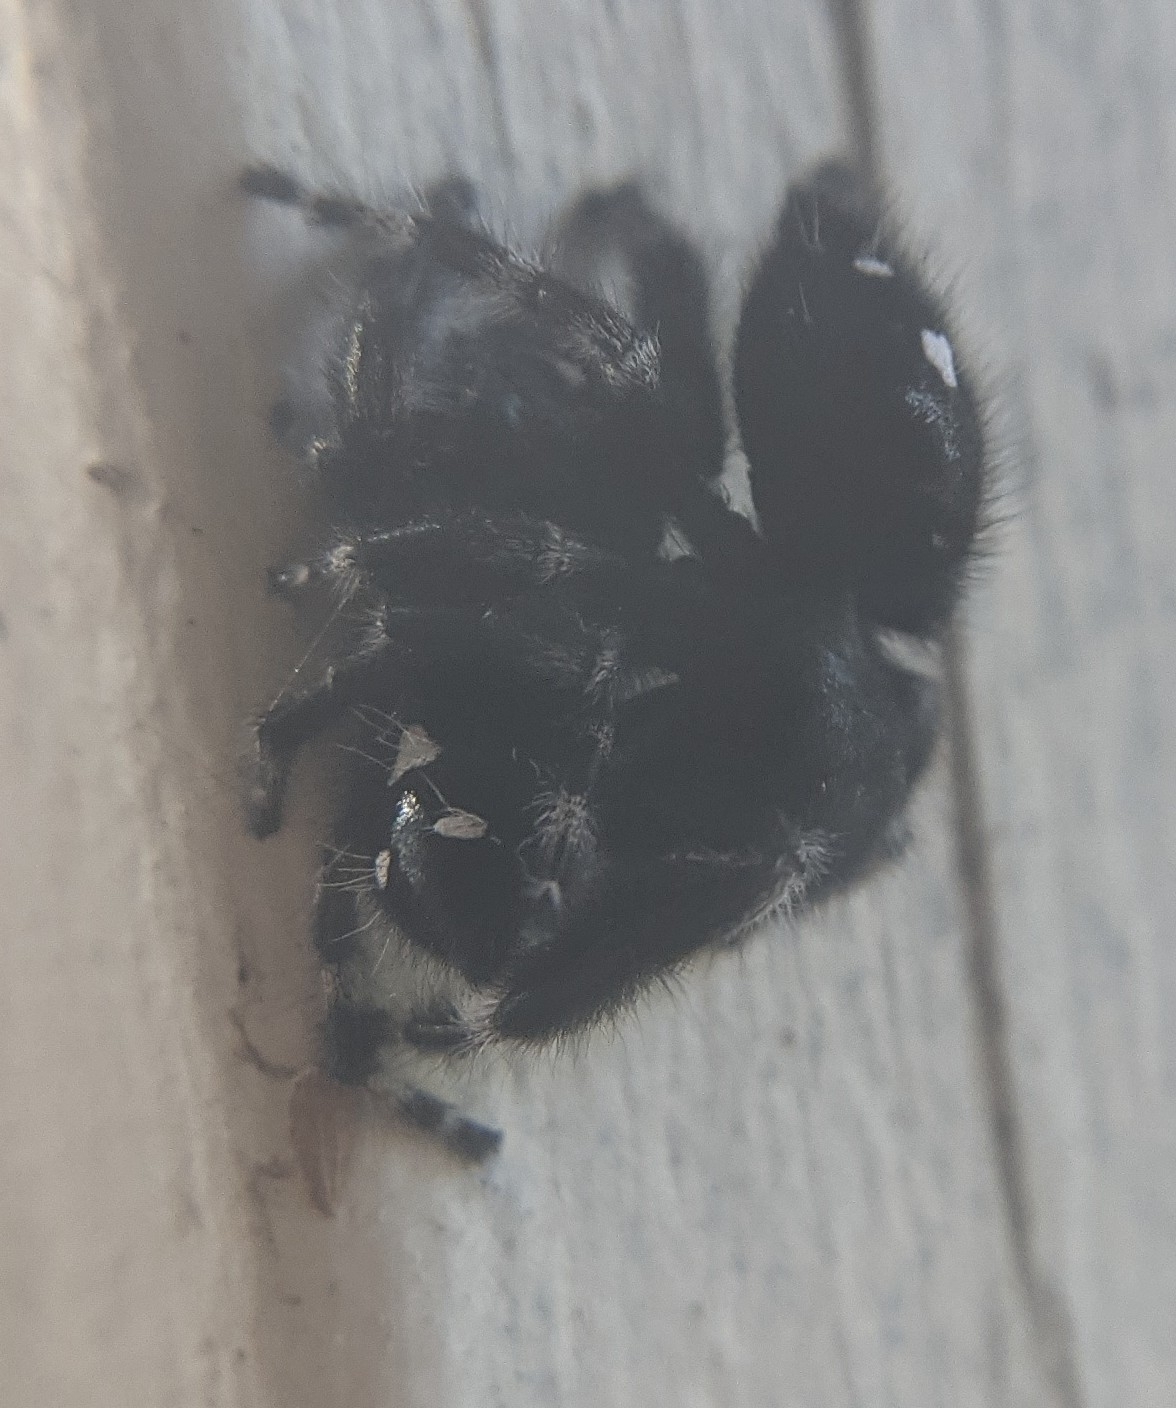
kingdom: Animalia
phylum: Arthropoda
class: Arachnida
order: Araneae
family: Salticidae
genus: Phidippus
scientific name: Phidippus audax
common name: Bold jumper
